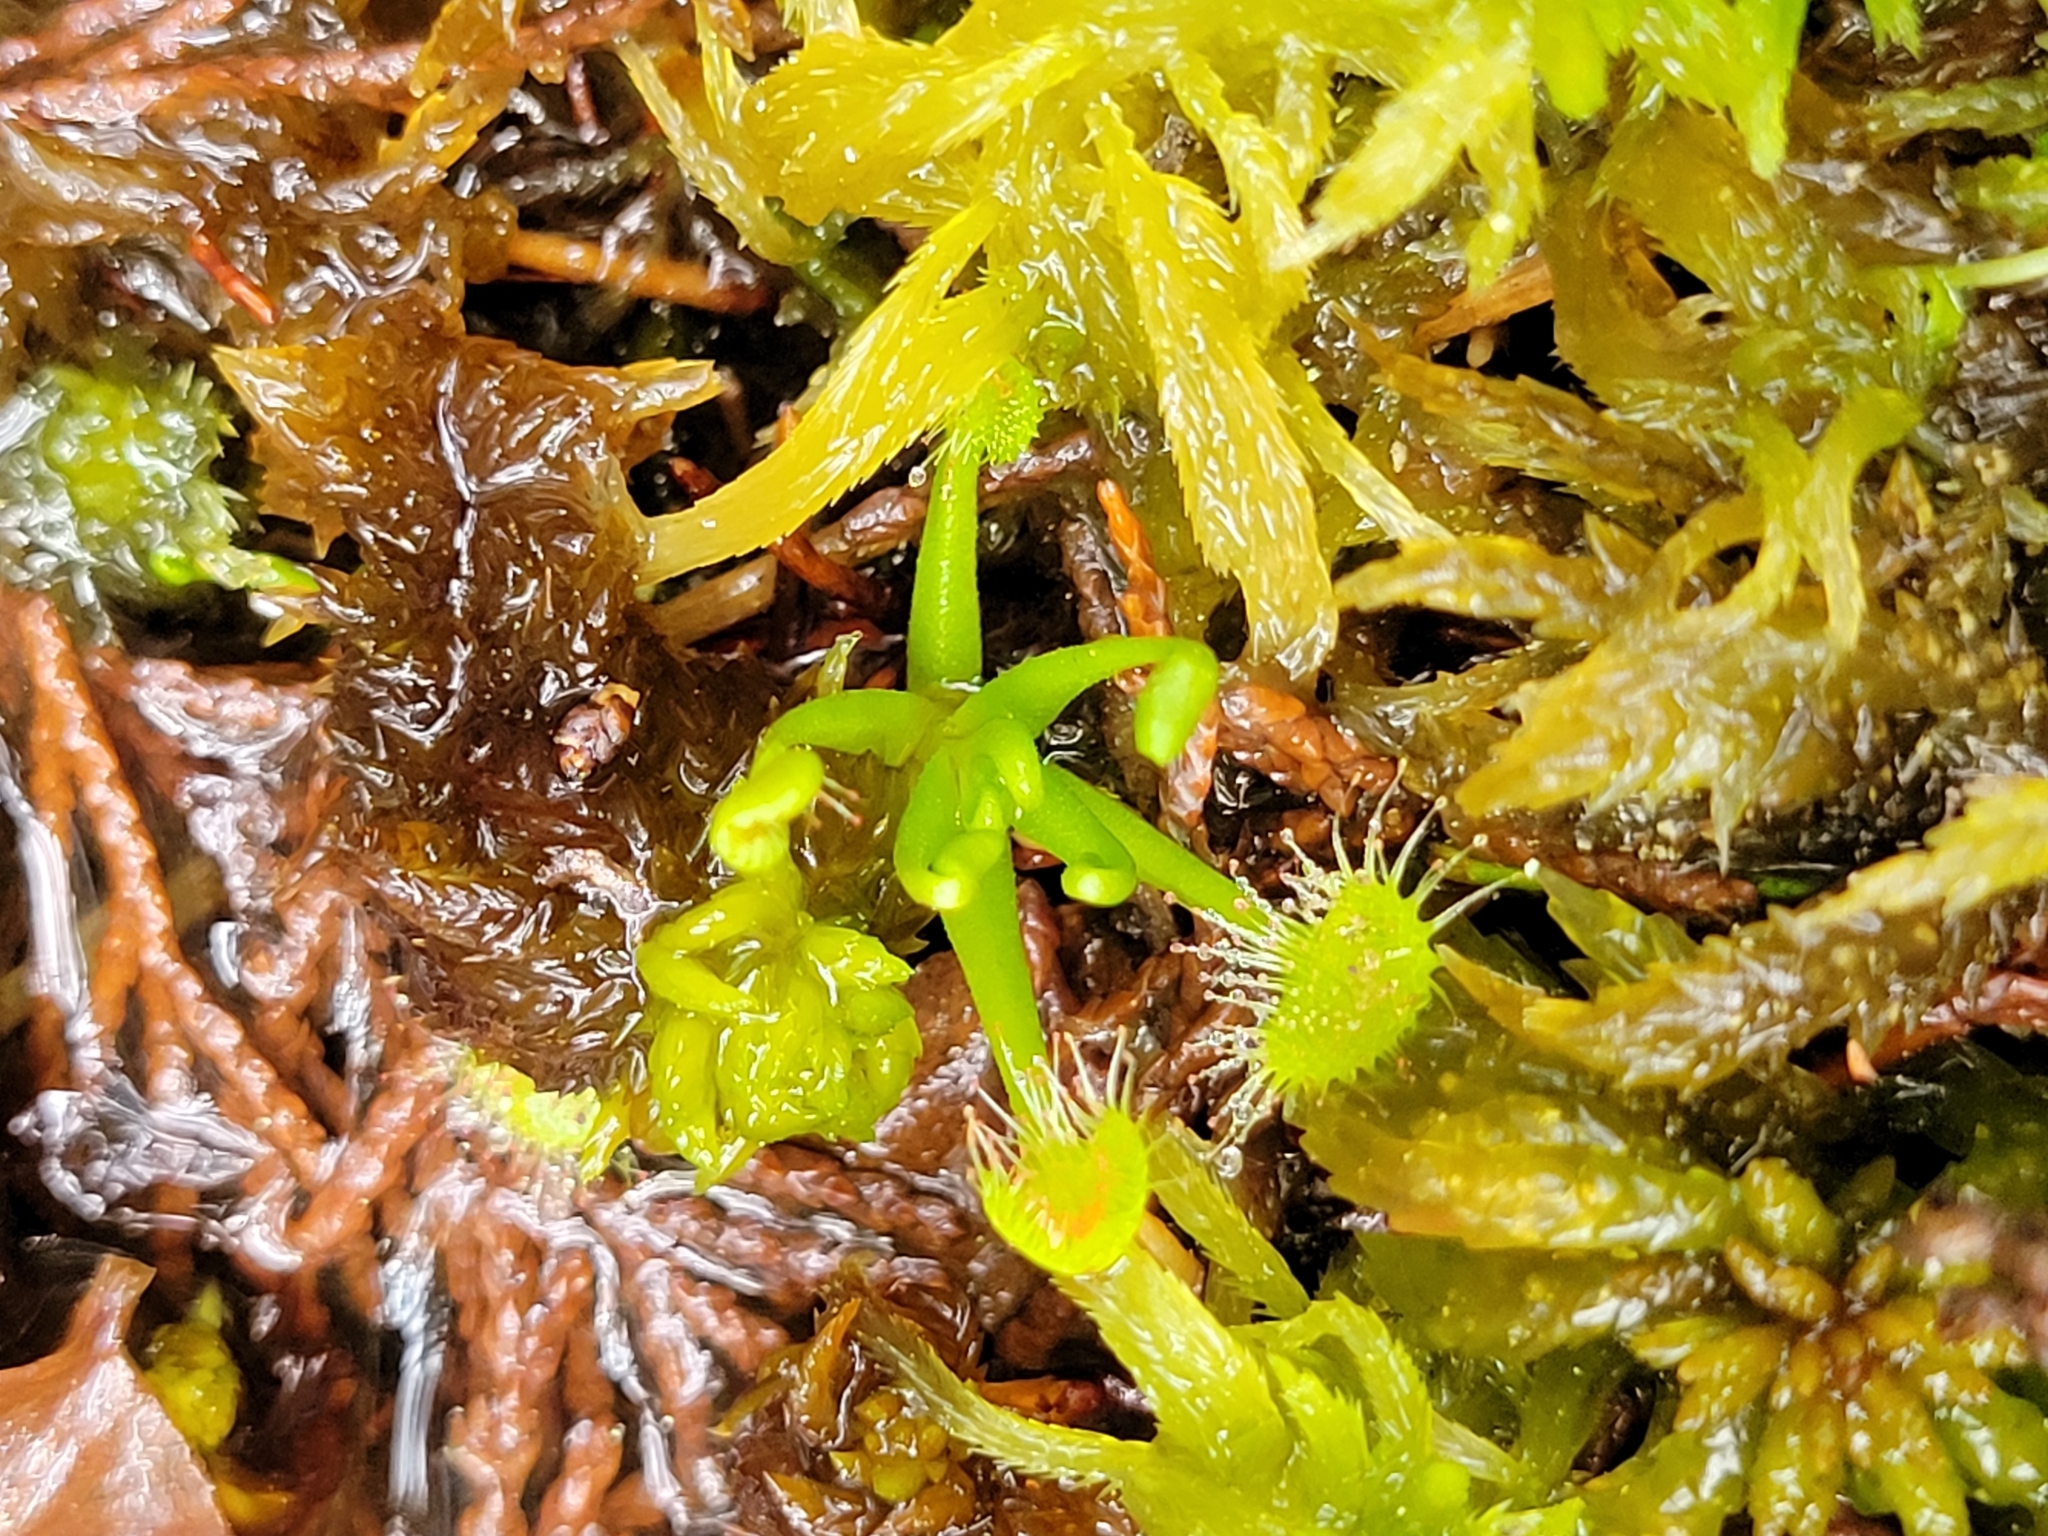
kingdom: Plantae
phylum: Tracheophyta
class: Magnoliopsida
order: Caryophyllales
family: Droseraceae
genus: Drosera
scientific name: Drosera rotundifolia
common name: Round-leaved sundew
